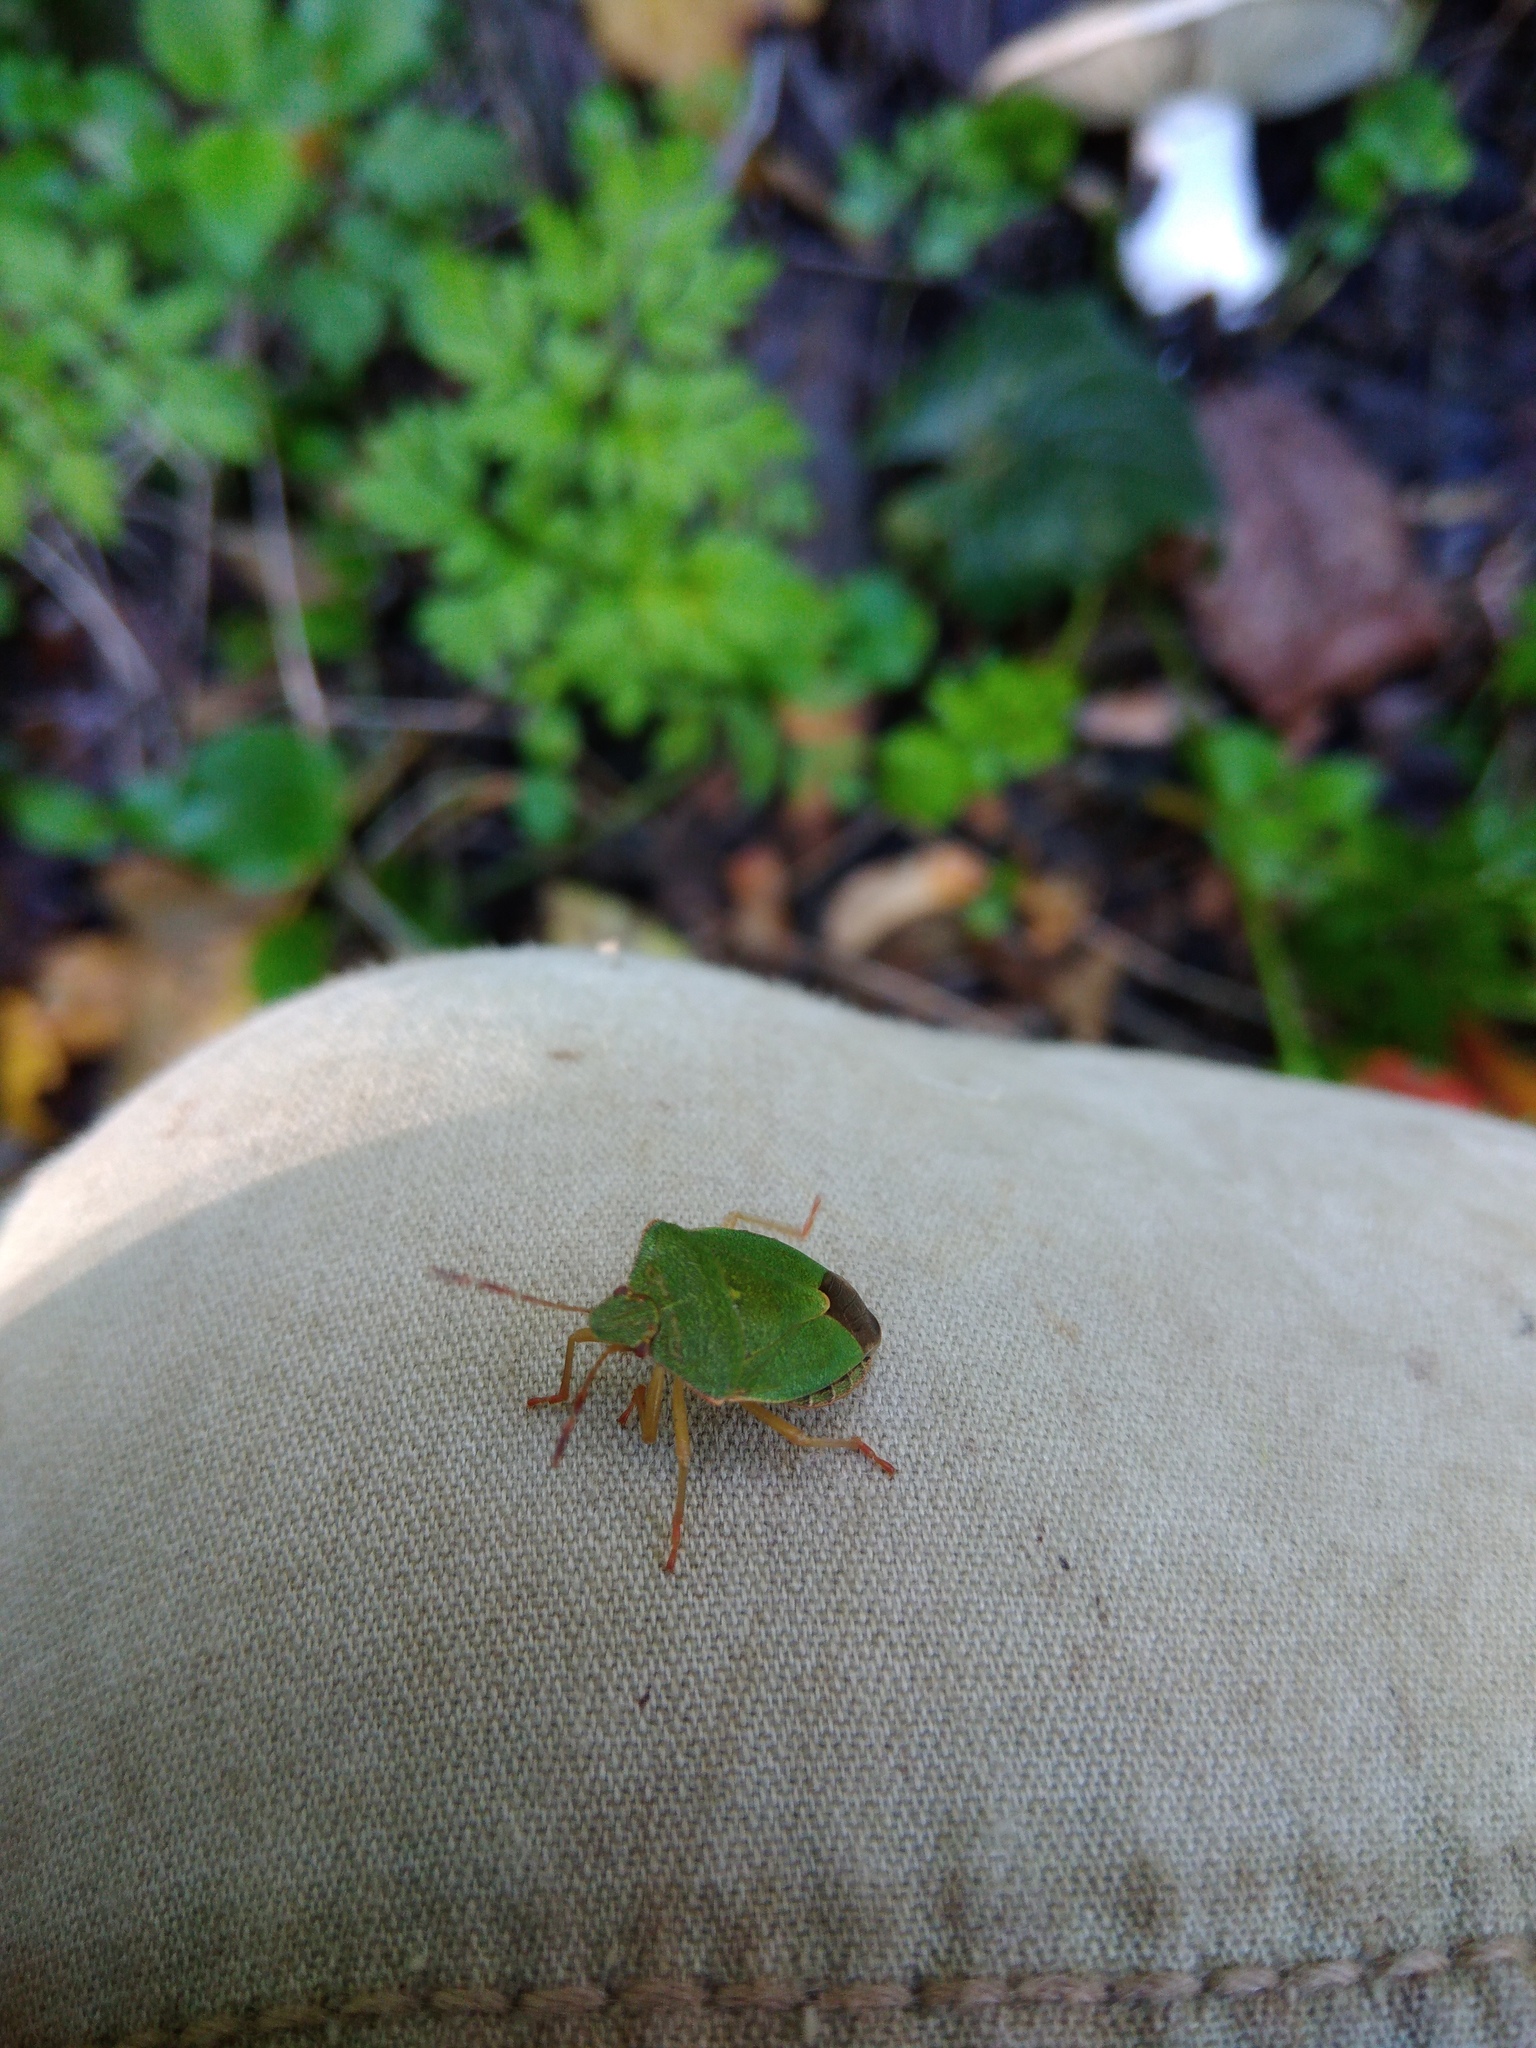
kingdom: Animalia
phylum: Arthropoda
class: Insecta
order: Hemiptera
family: Pentatomidae
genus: Palomena
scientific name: Palomena prasina
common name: Green shieldbug
